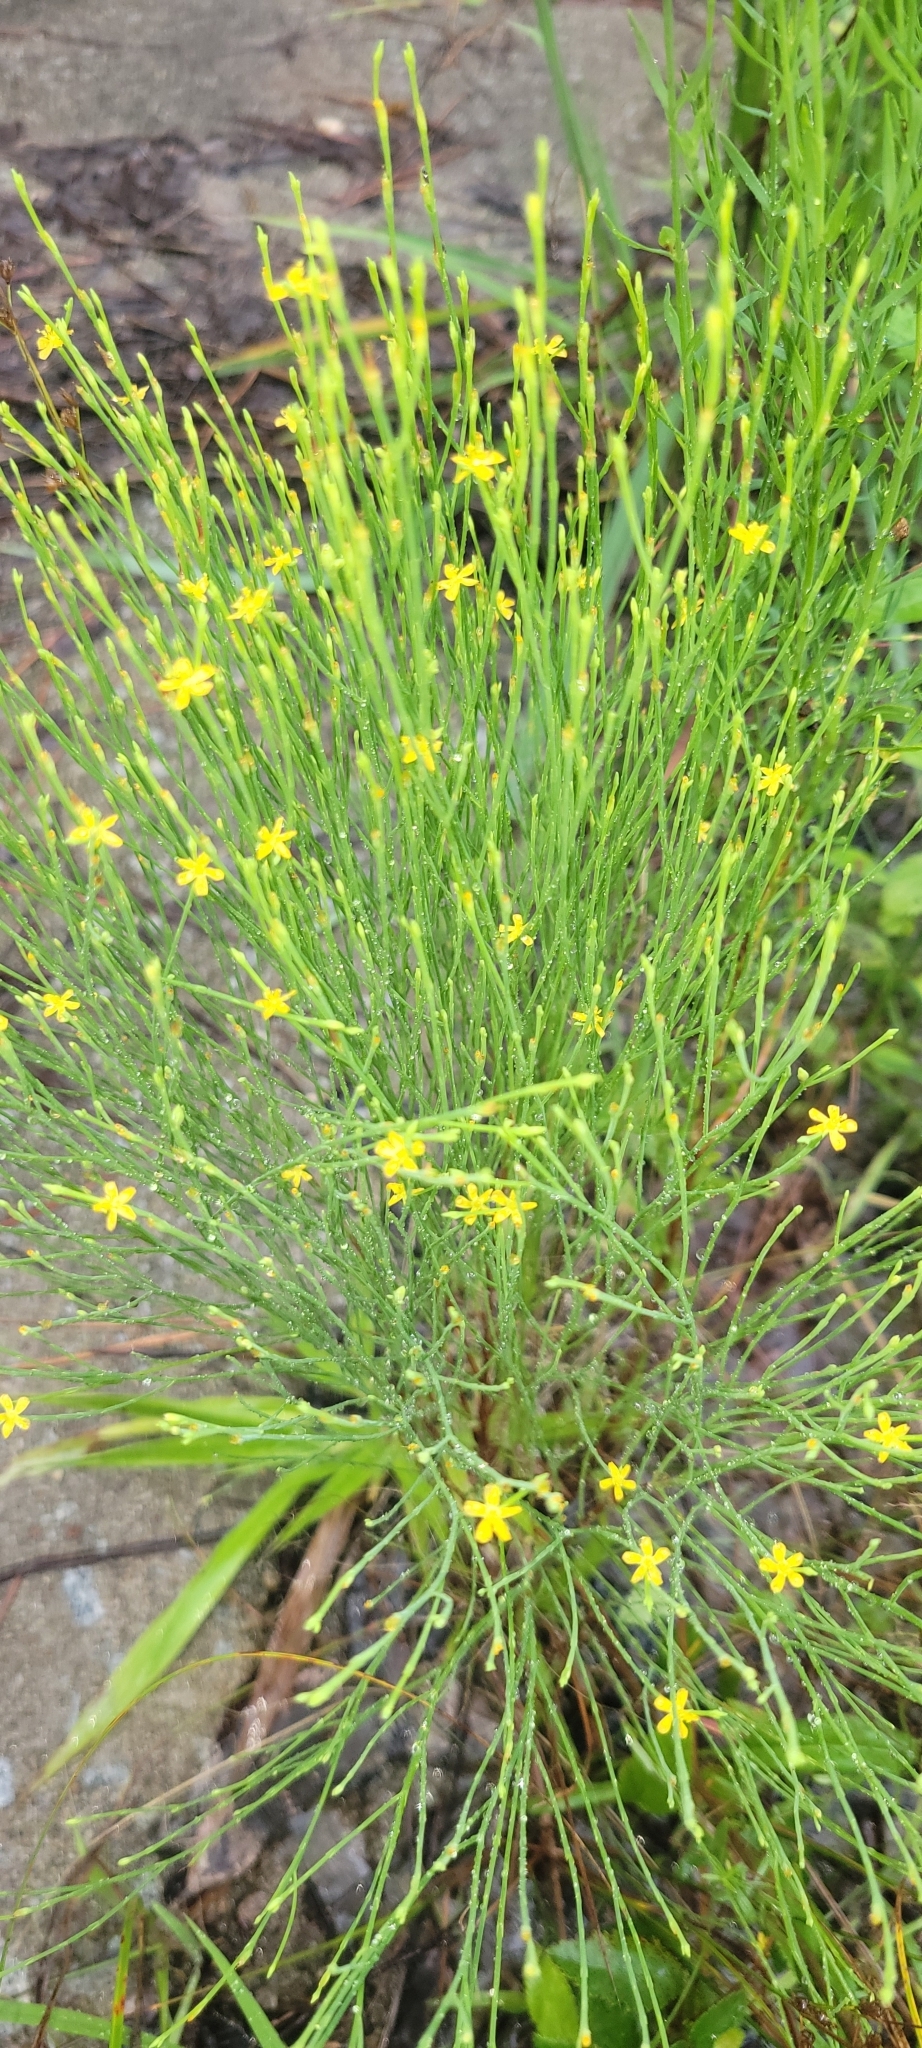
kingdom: Plantae
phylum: Tracheophyta
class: Magnoliopsida
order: Malpighiales
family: Hypericaceae
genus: Hypericum
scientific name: Hypericum gentianoides
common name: Gentian-leaved st. john's-wort
